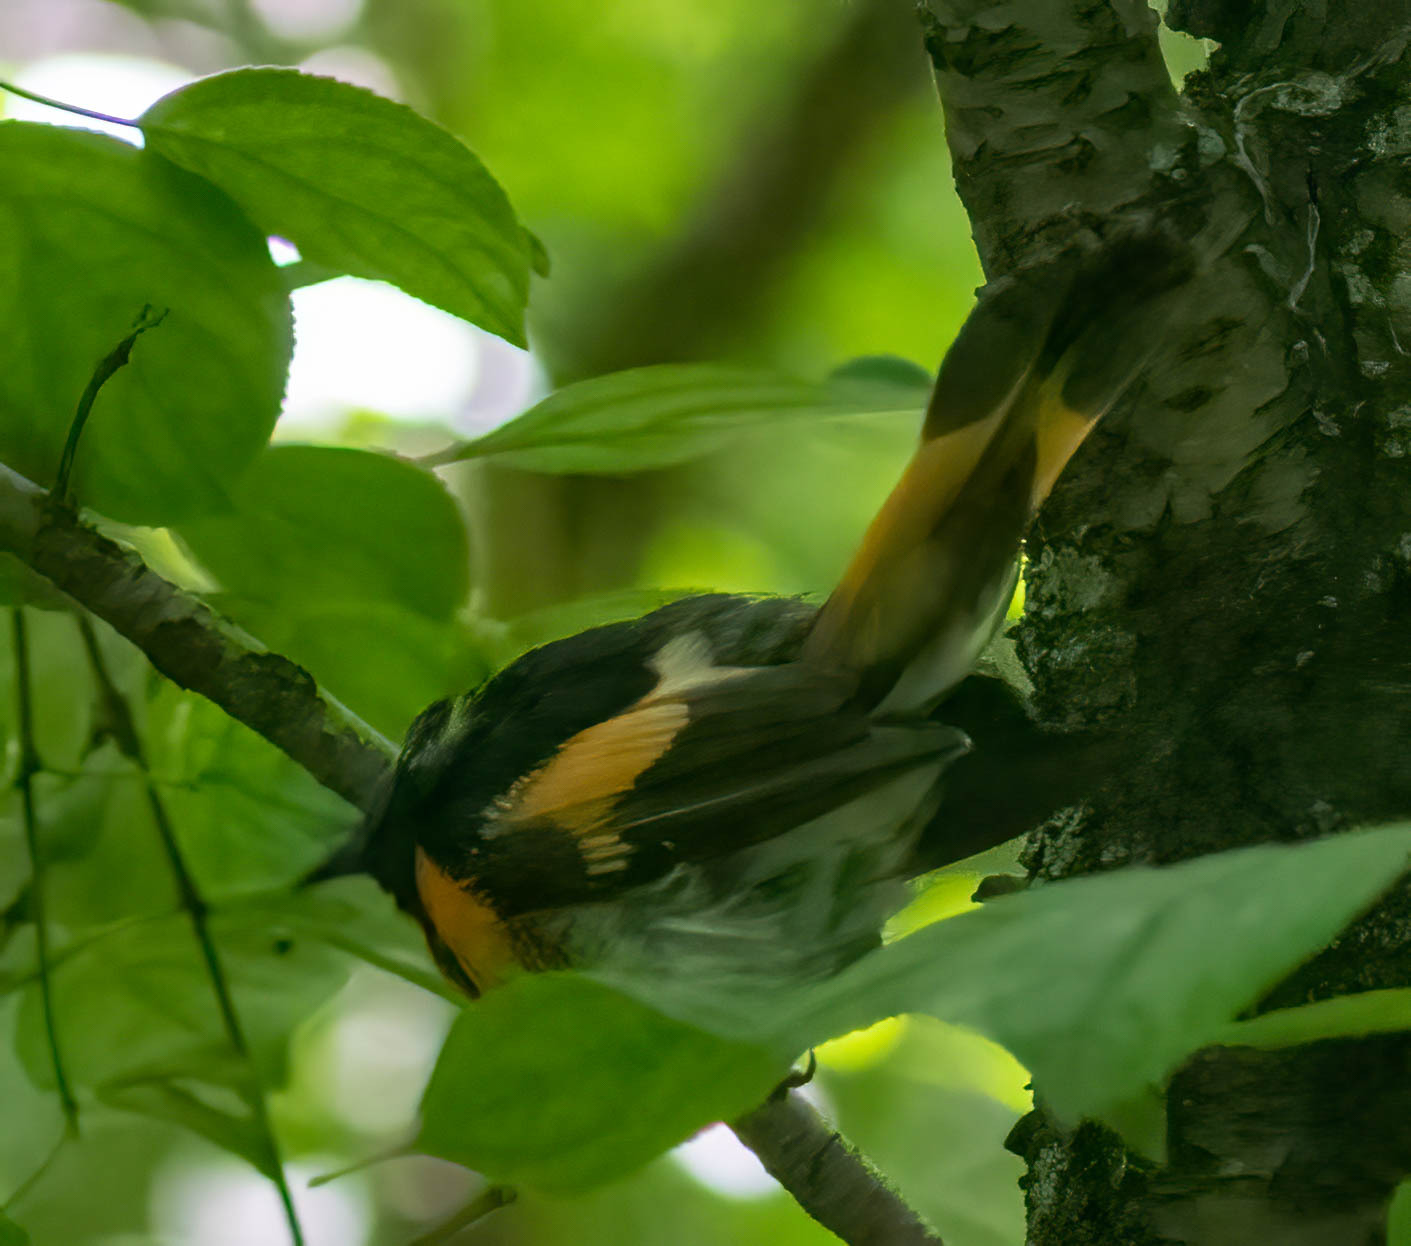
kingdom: Animalia
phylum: Chordata
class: Aves
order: Passeriformes
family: Parulidae
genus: Setophaga
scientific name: Setophaga ruticilla
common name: American redstart
